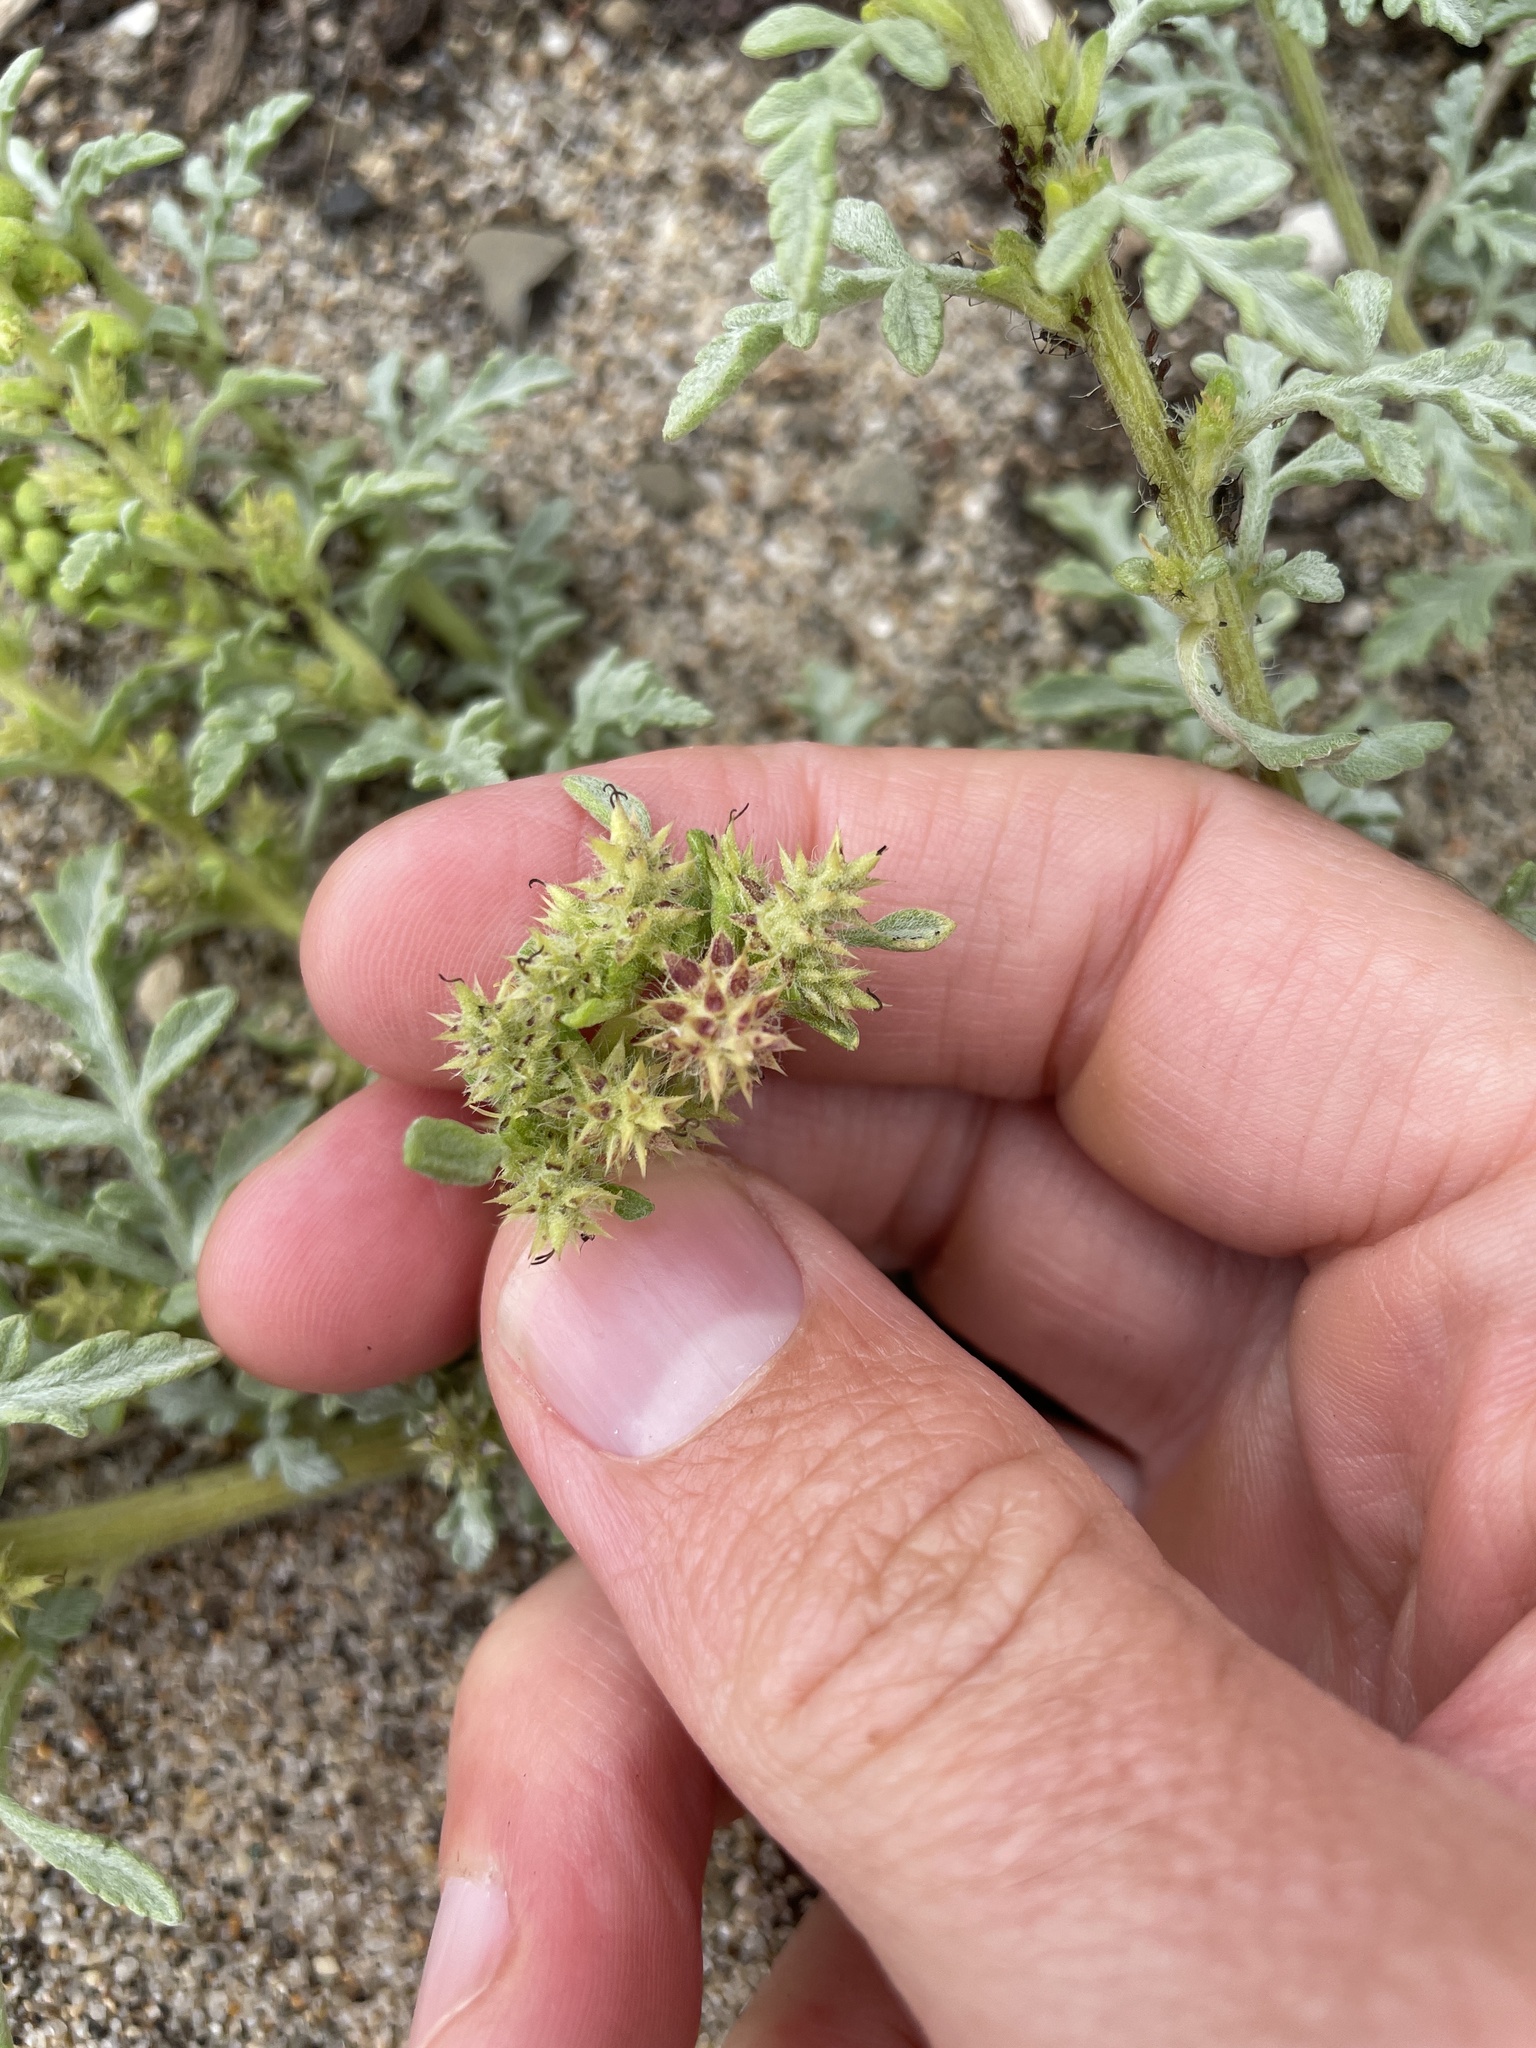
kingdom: Plantae
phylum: Tracheophyta
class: Magnoliopsida
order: Asterales
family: Asteraceae
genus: Ambrosia
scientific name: Ambrosia chamissonis
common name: Beachbur
